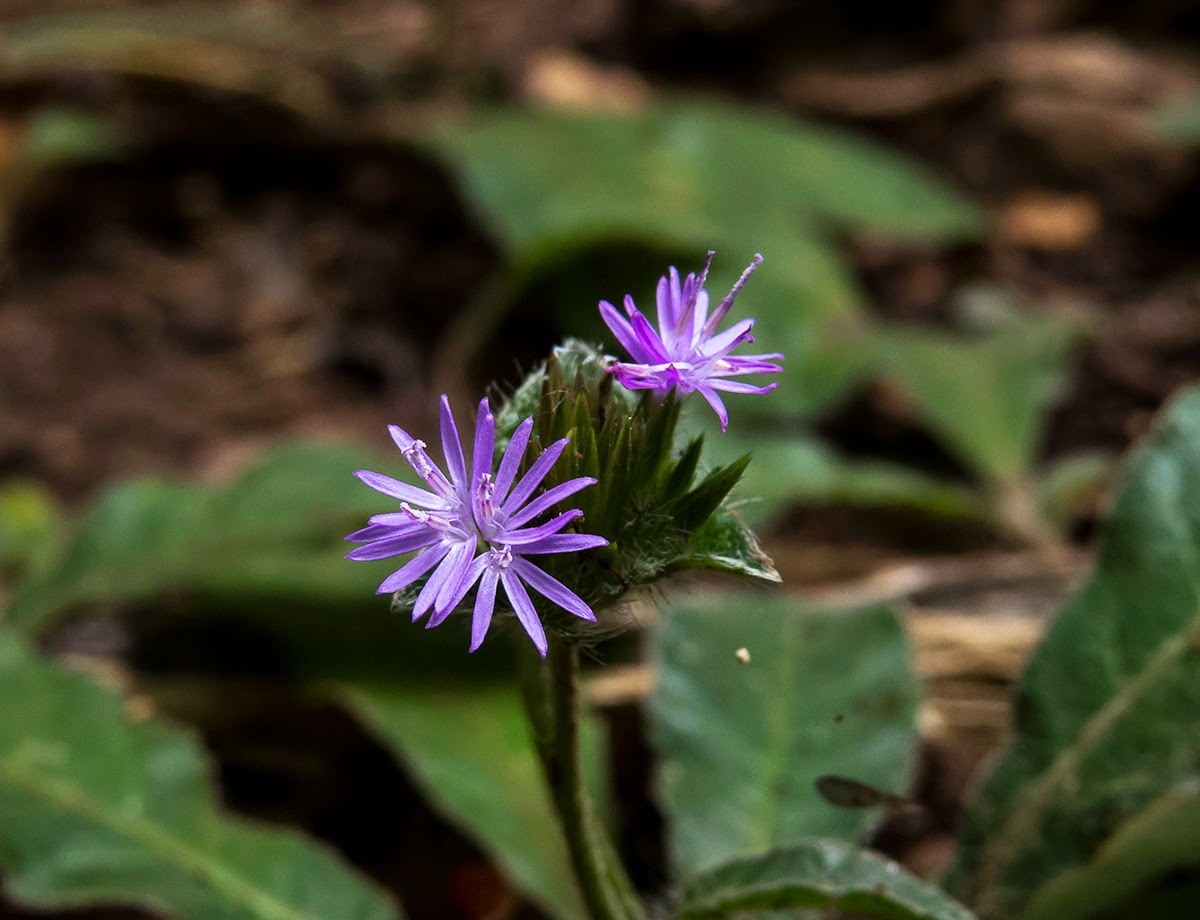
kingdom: Plantae
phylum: Tracheophyta
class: Magnoliopsida
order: Asterales
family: Asteraceae
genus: Elephantopus
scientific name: Elephantopus scaber
